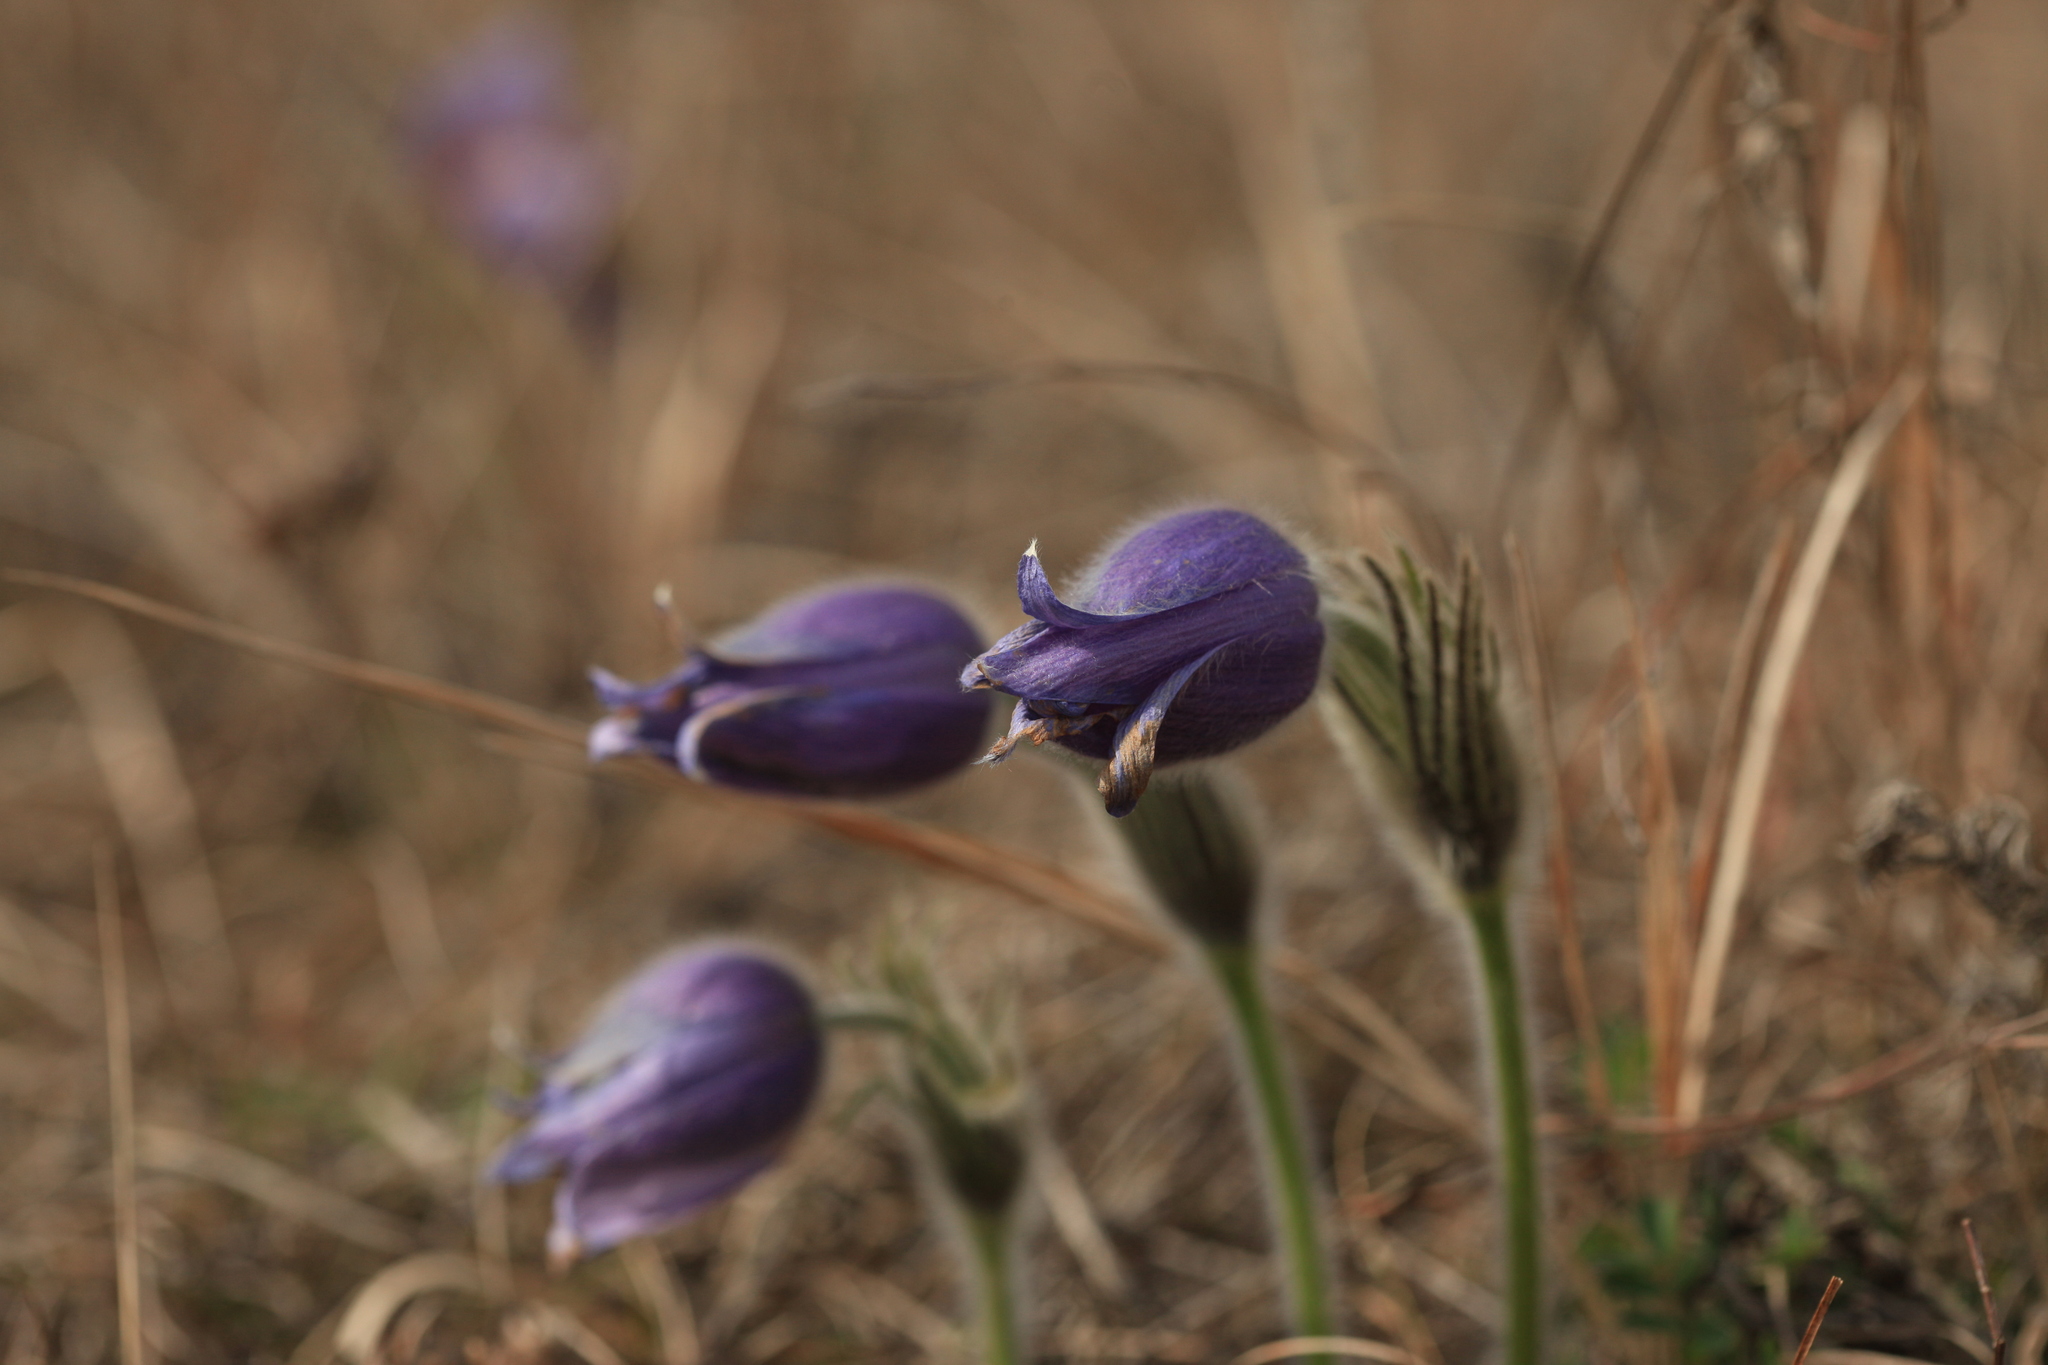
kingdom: Plantae
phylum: Tracheophyta
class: Magnoliopsida
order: Ranunculales
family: Ranunculaceae
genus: Pulsatilla
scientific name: Pulsatilla pratensis
